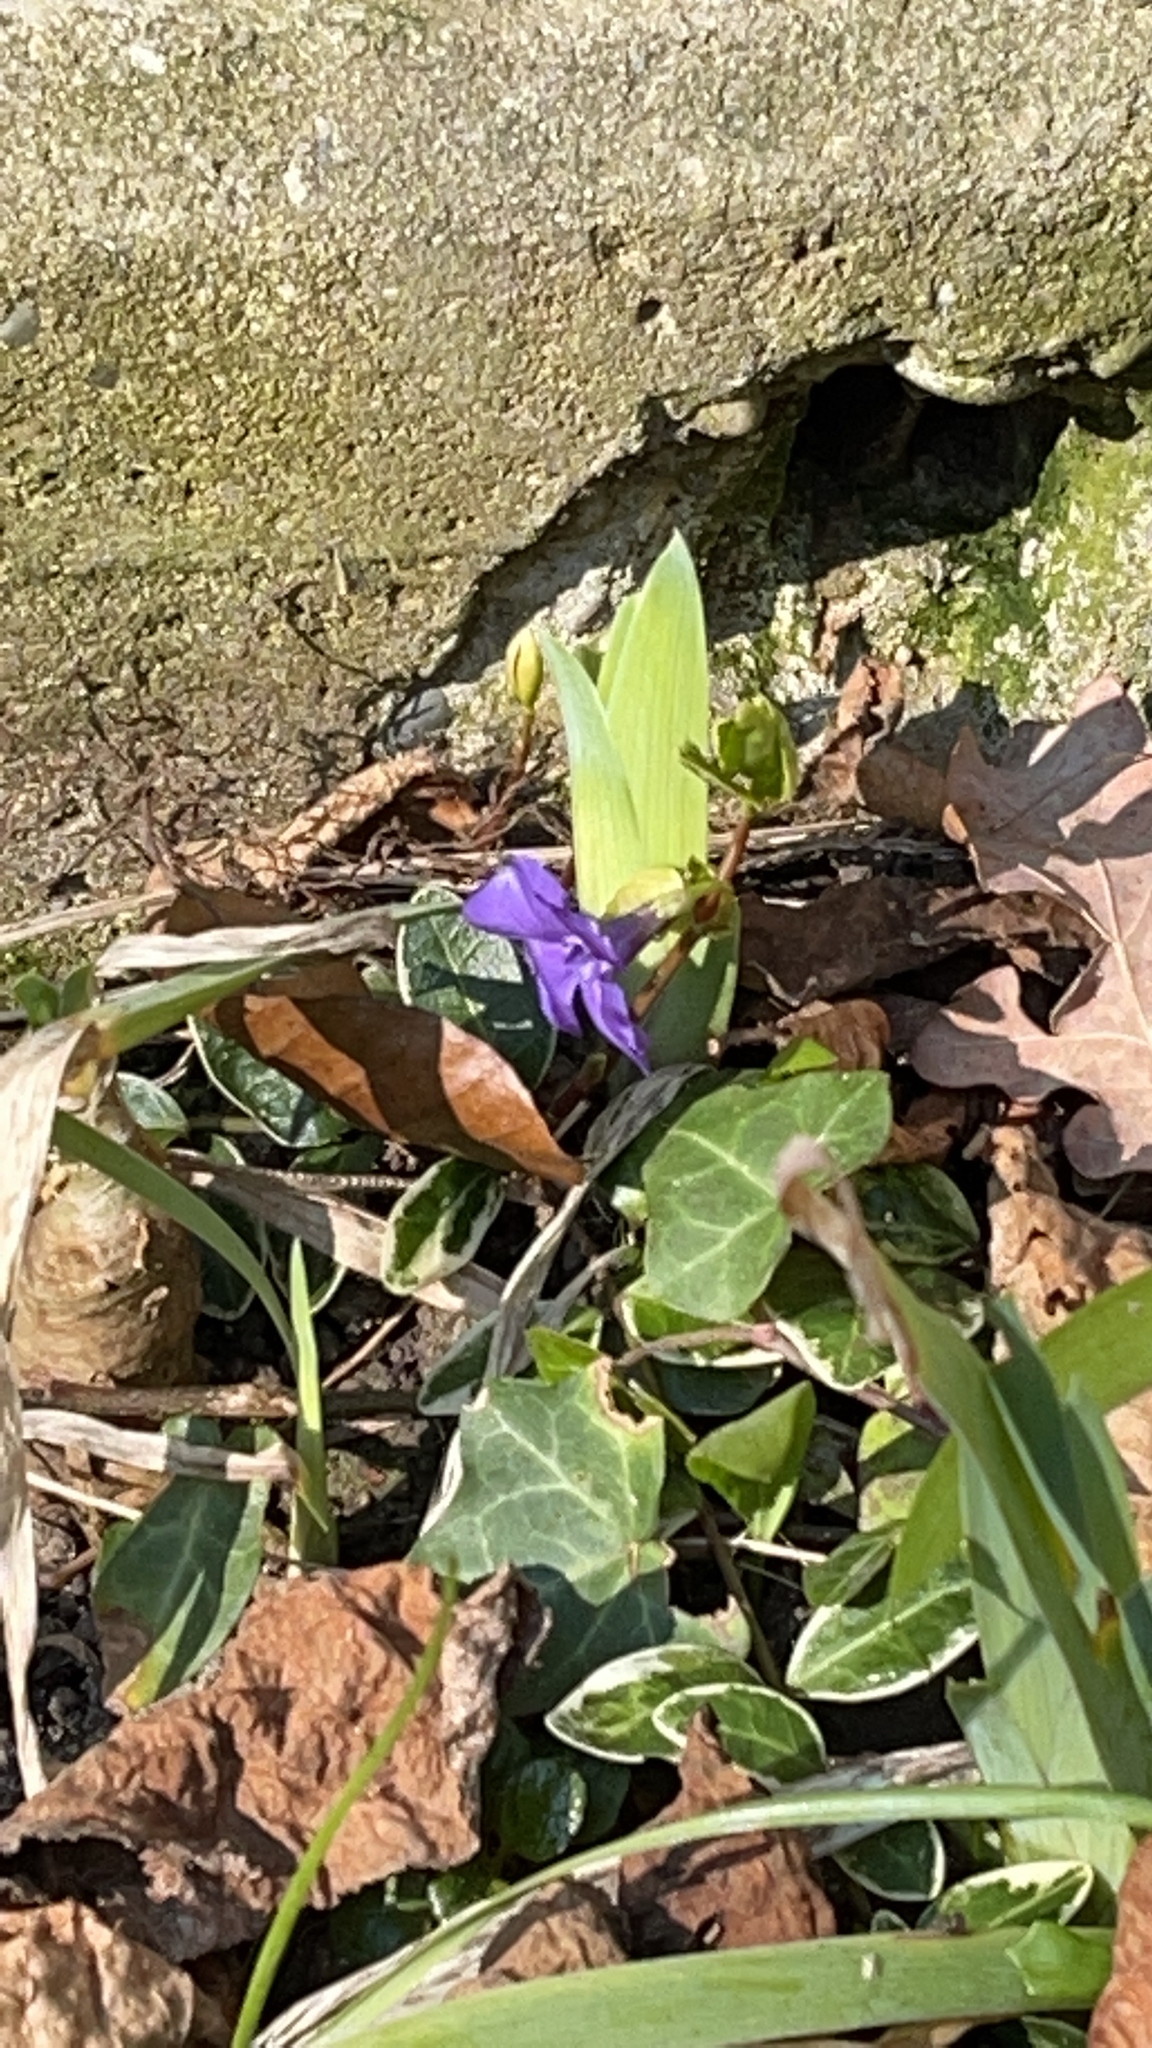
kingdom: Plantae
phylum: Tracheophyta
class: Magnoliopsida
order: Gentianales
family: Apocynaceae
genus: Vinca
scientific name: Vinca minor
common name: Lesser periwinkle
